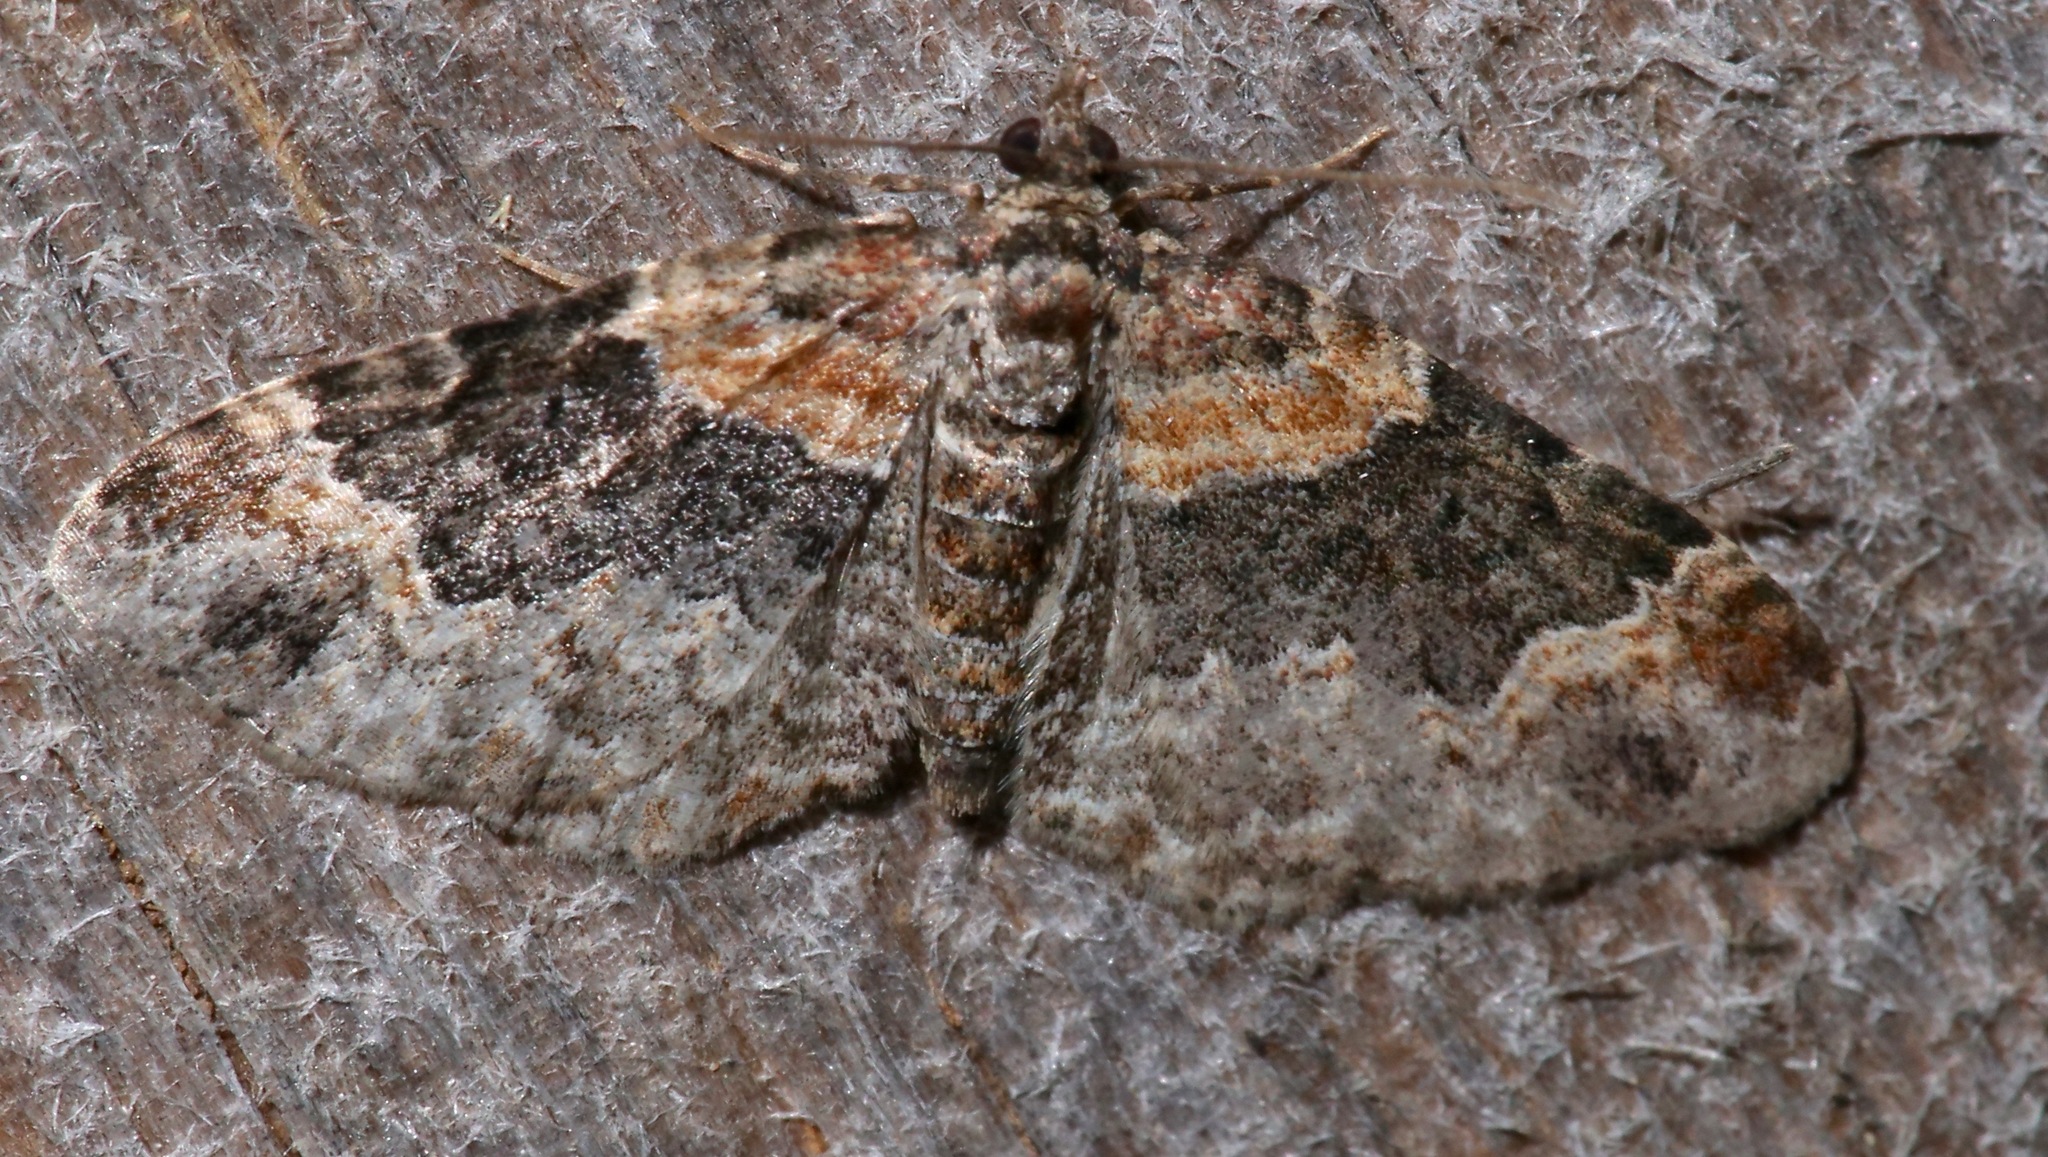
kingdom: Animalia
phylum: Arthropoda
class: Insecta
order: Lepidoptera
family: Geometridae
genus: Xanthorhoe
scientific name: Xanthorhoe ferrugata
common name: Dark-barred twin-spot carpet
